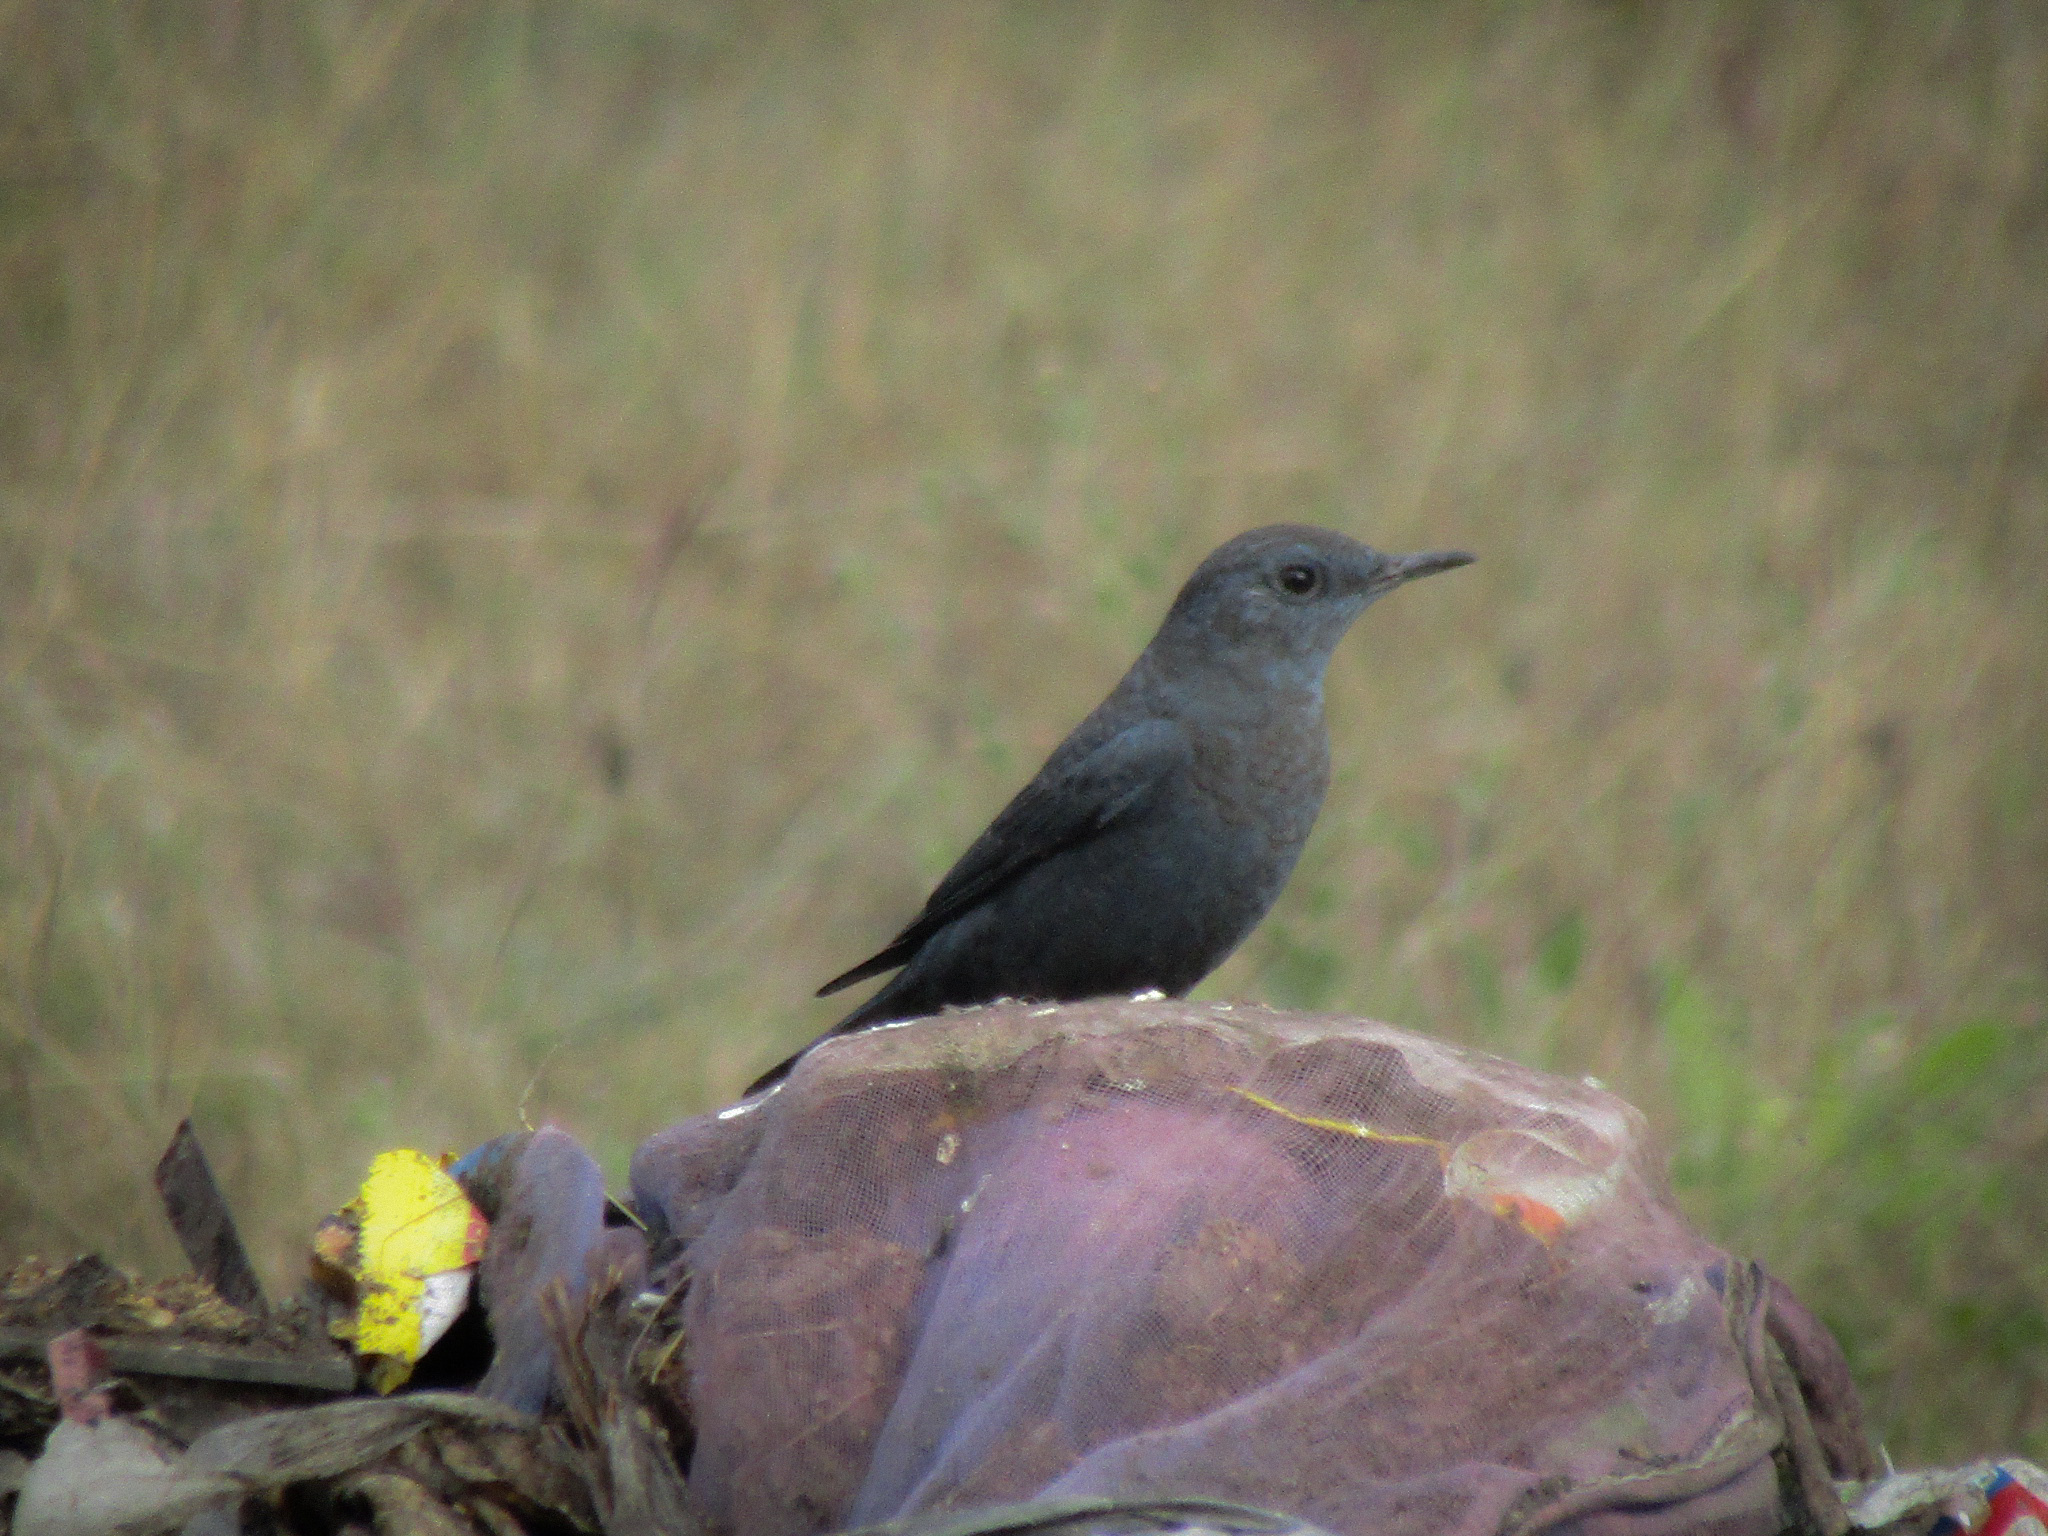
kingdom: Animalia
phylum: Chordata
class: Aves
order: Passeriformes
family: Muscicapidae
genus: Monticola
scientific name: Monticola solitarius
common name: Blue rock thrush
